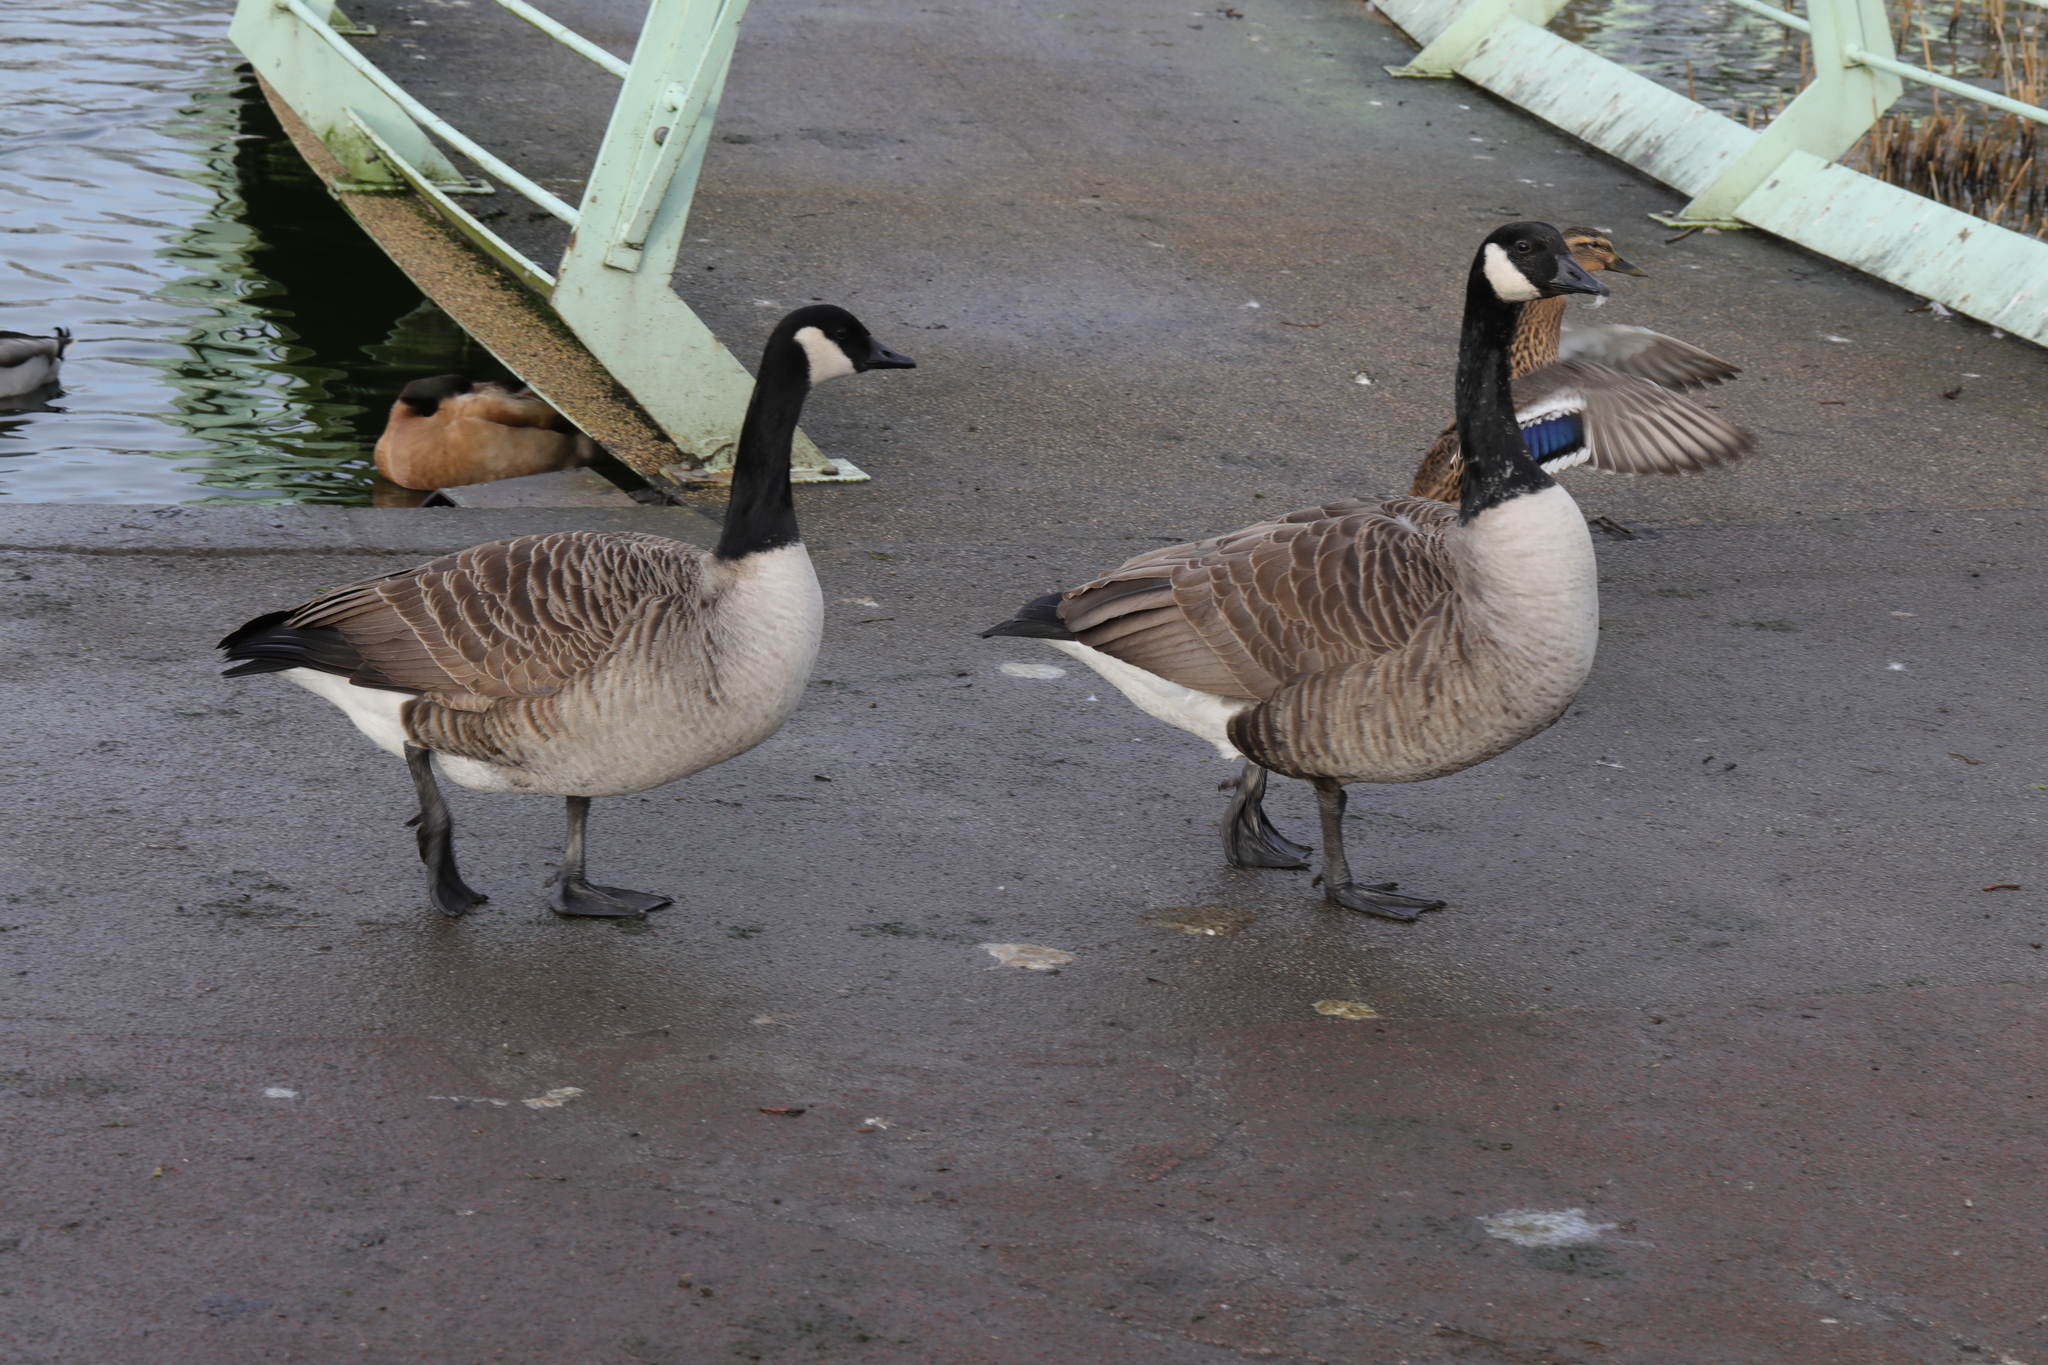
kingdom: Animalia
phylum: Chordata
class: Aves
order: Anseriformes
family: Anatidae
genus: Branta
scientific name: Branta canadensis
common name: Canada goose
